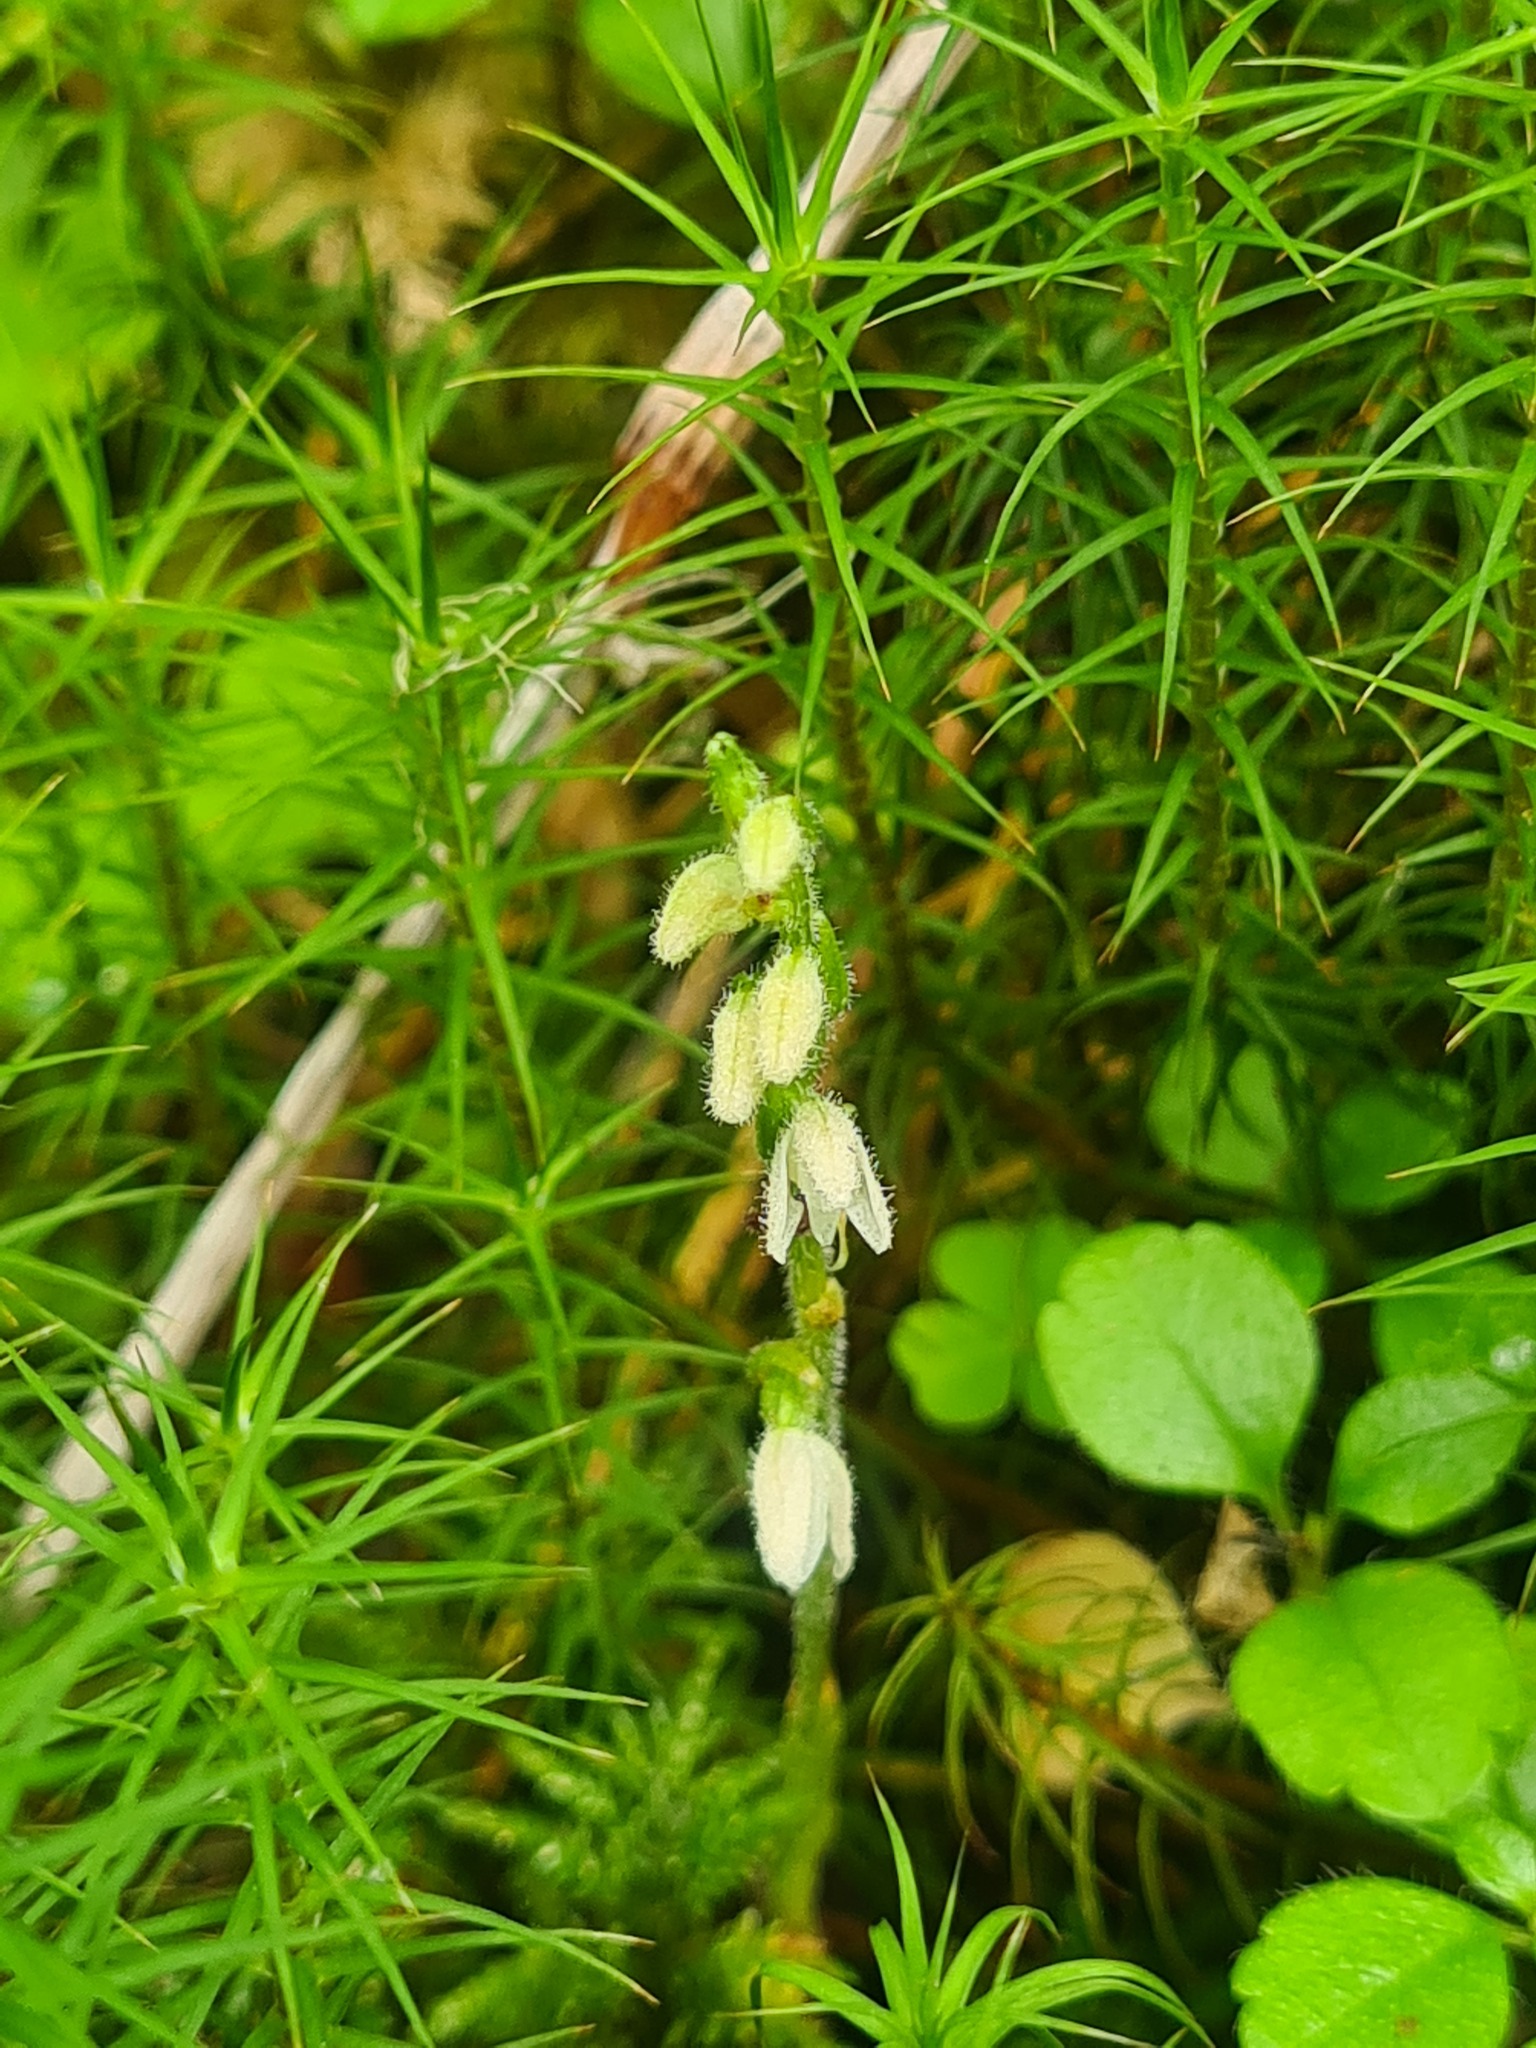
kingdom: Plantae
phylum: Tracheophyta
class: Liliopsida
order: Asparagales
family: Orchidaceae
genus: Goodyera
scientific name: Goodyera repens
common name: Creeping lady's-tresses
